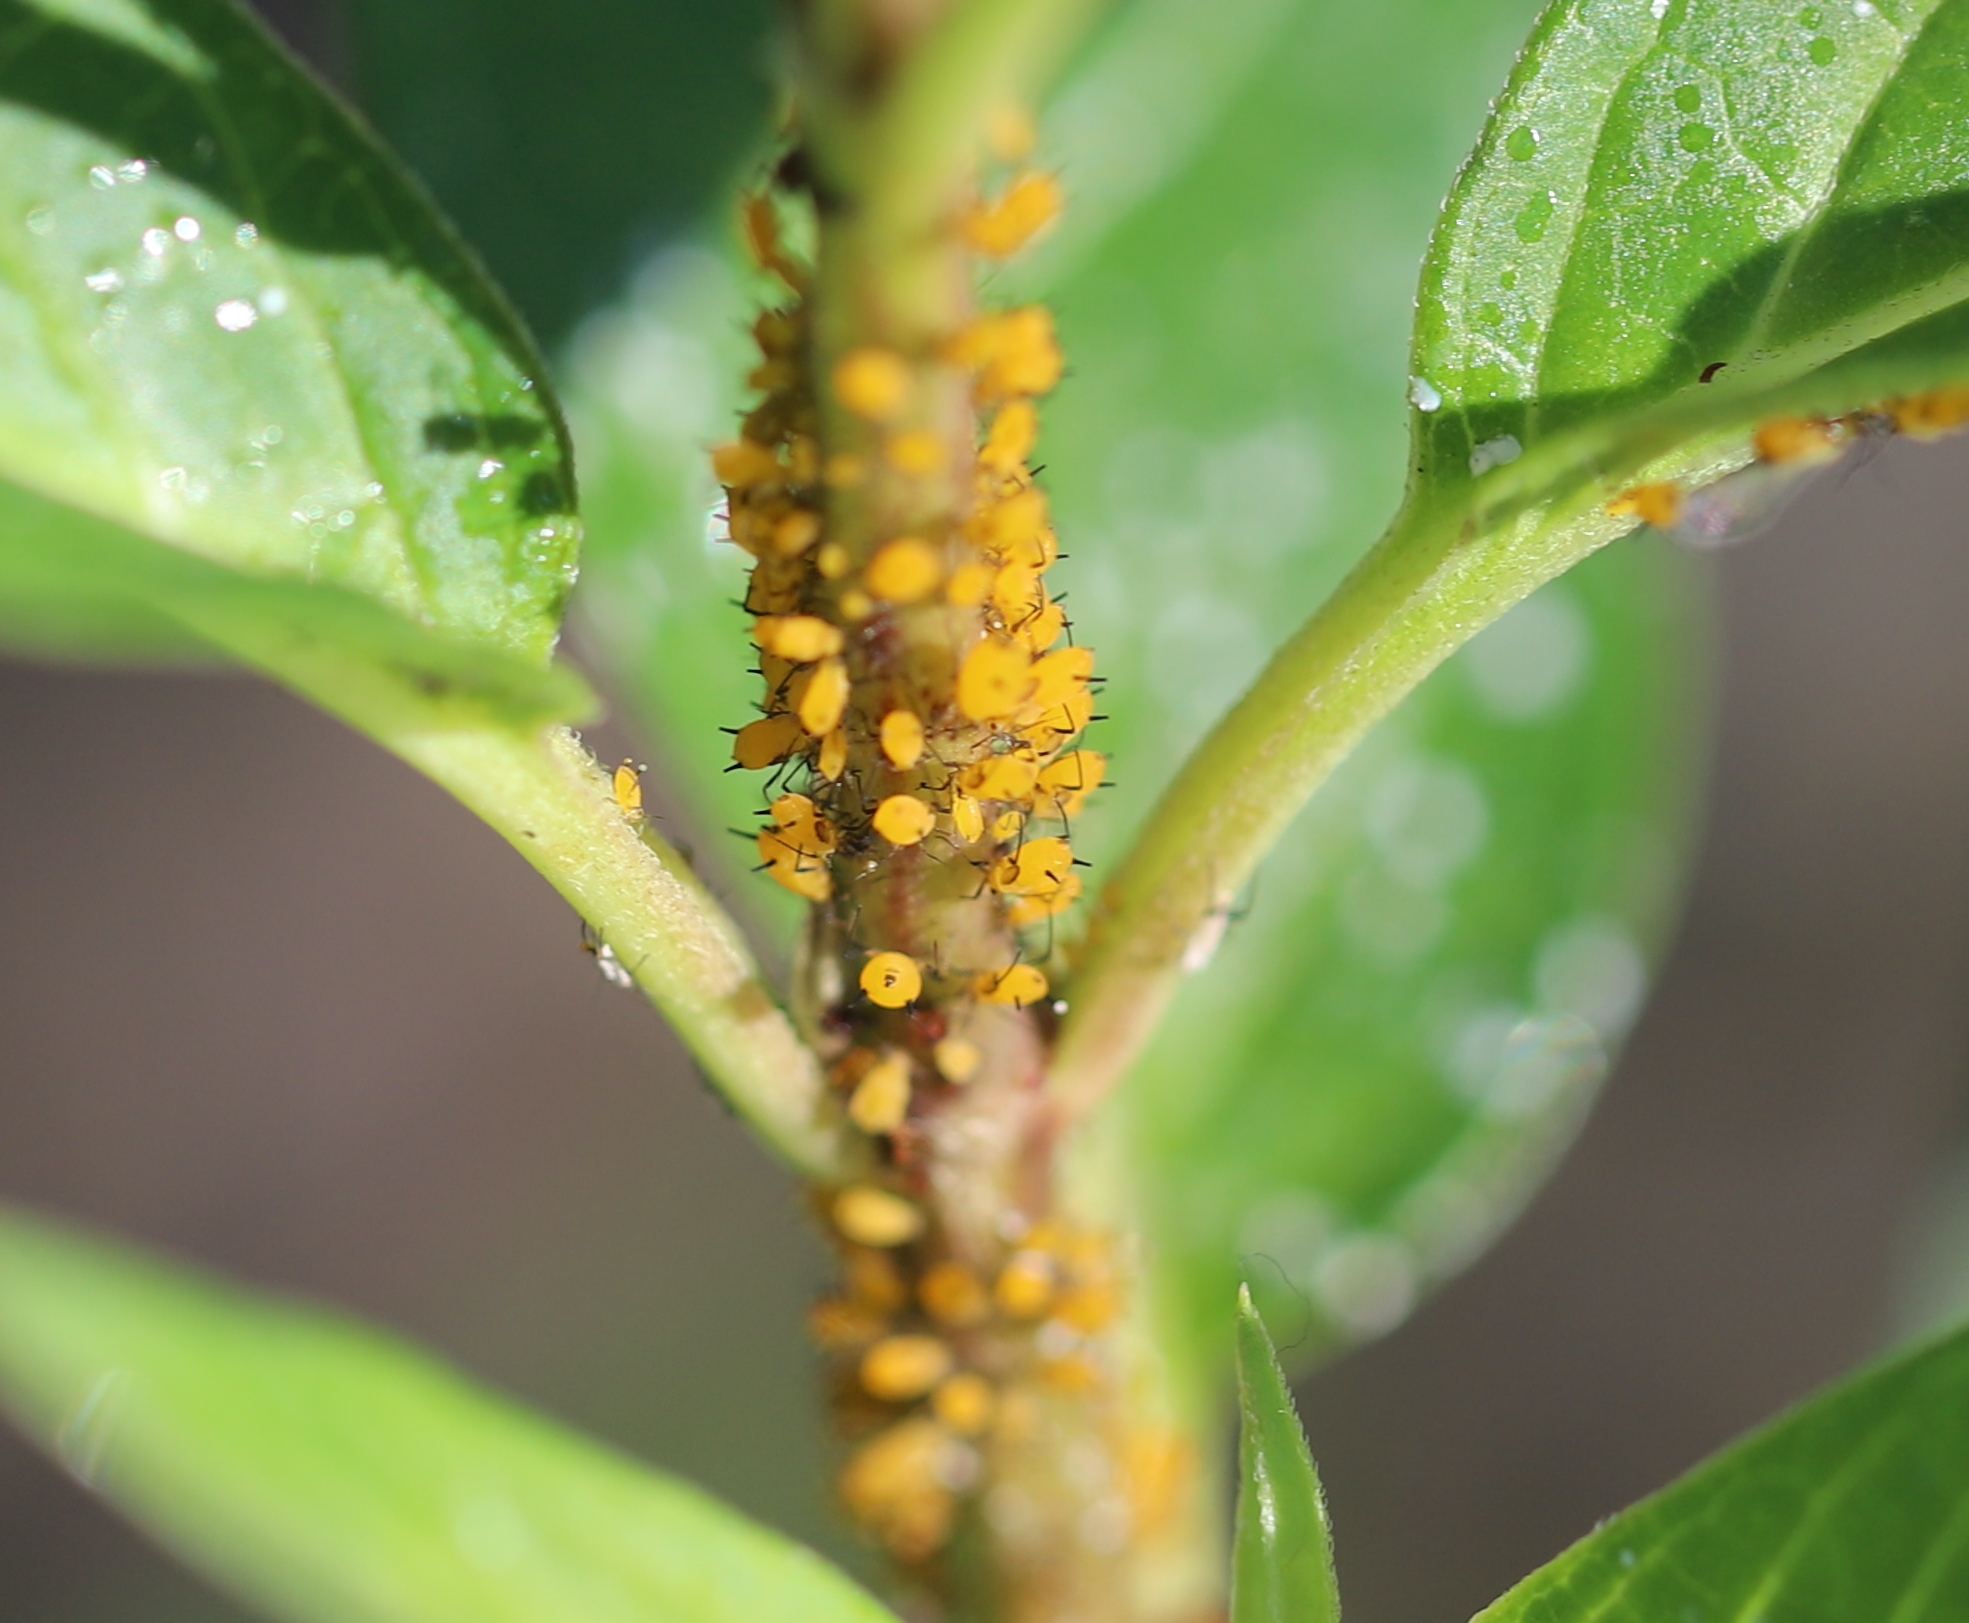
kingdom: Animalia
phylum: Arthropoda
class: Insecta
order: Hemiptera
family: Aphididae
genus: Aphis
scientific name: Aphis nerii
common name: Oleander aphid
